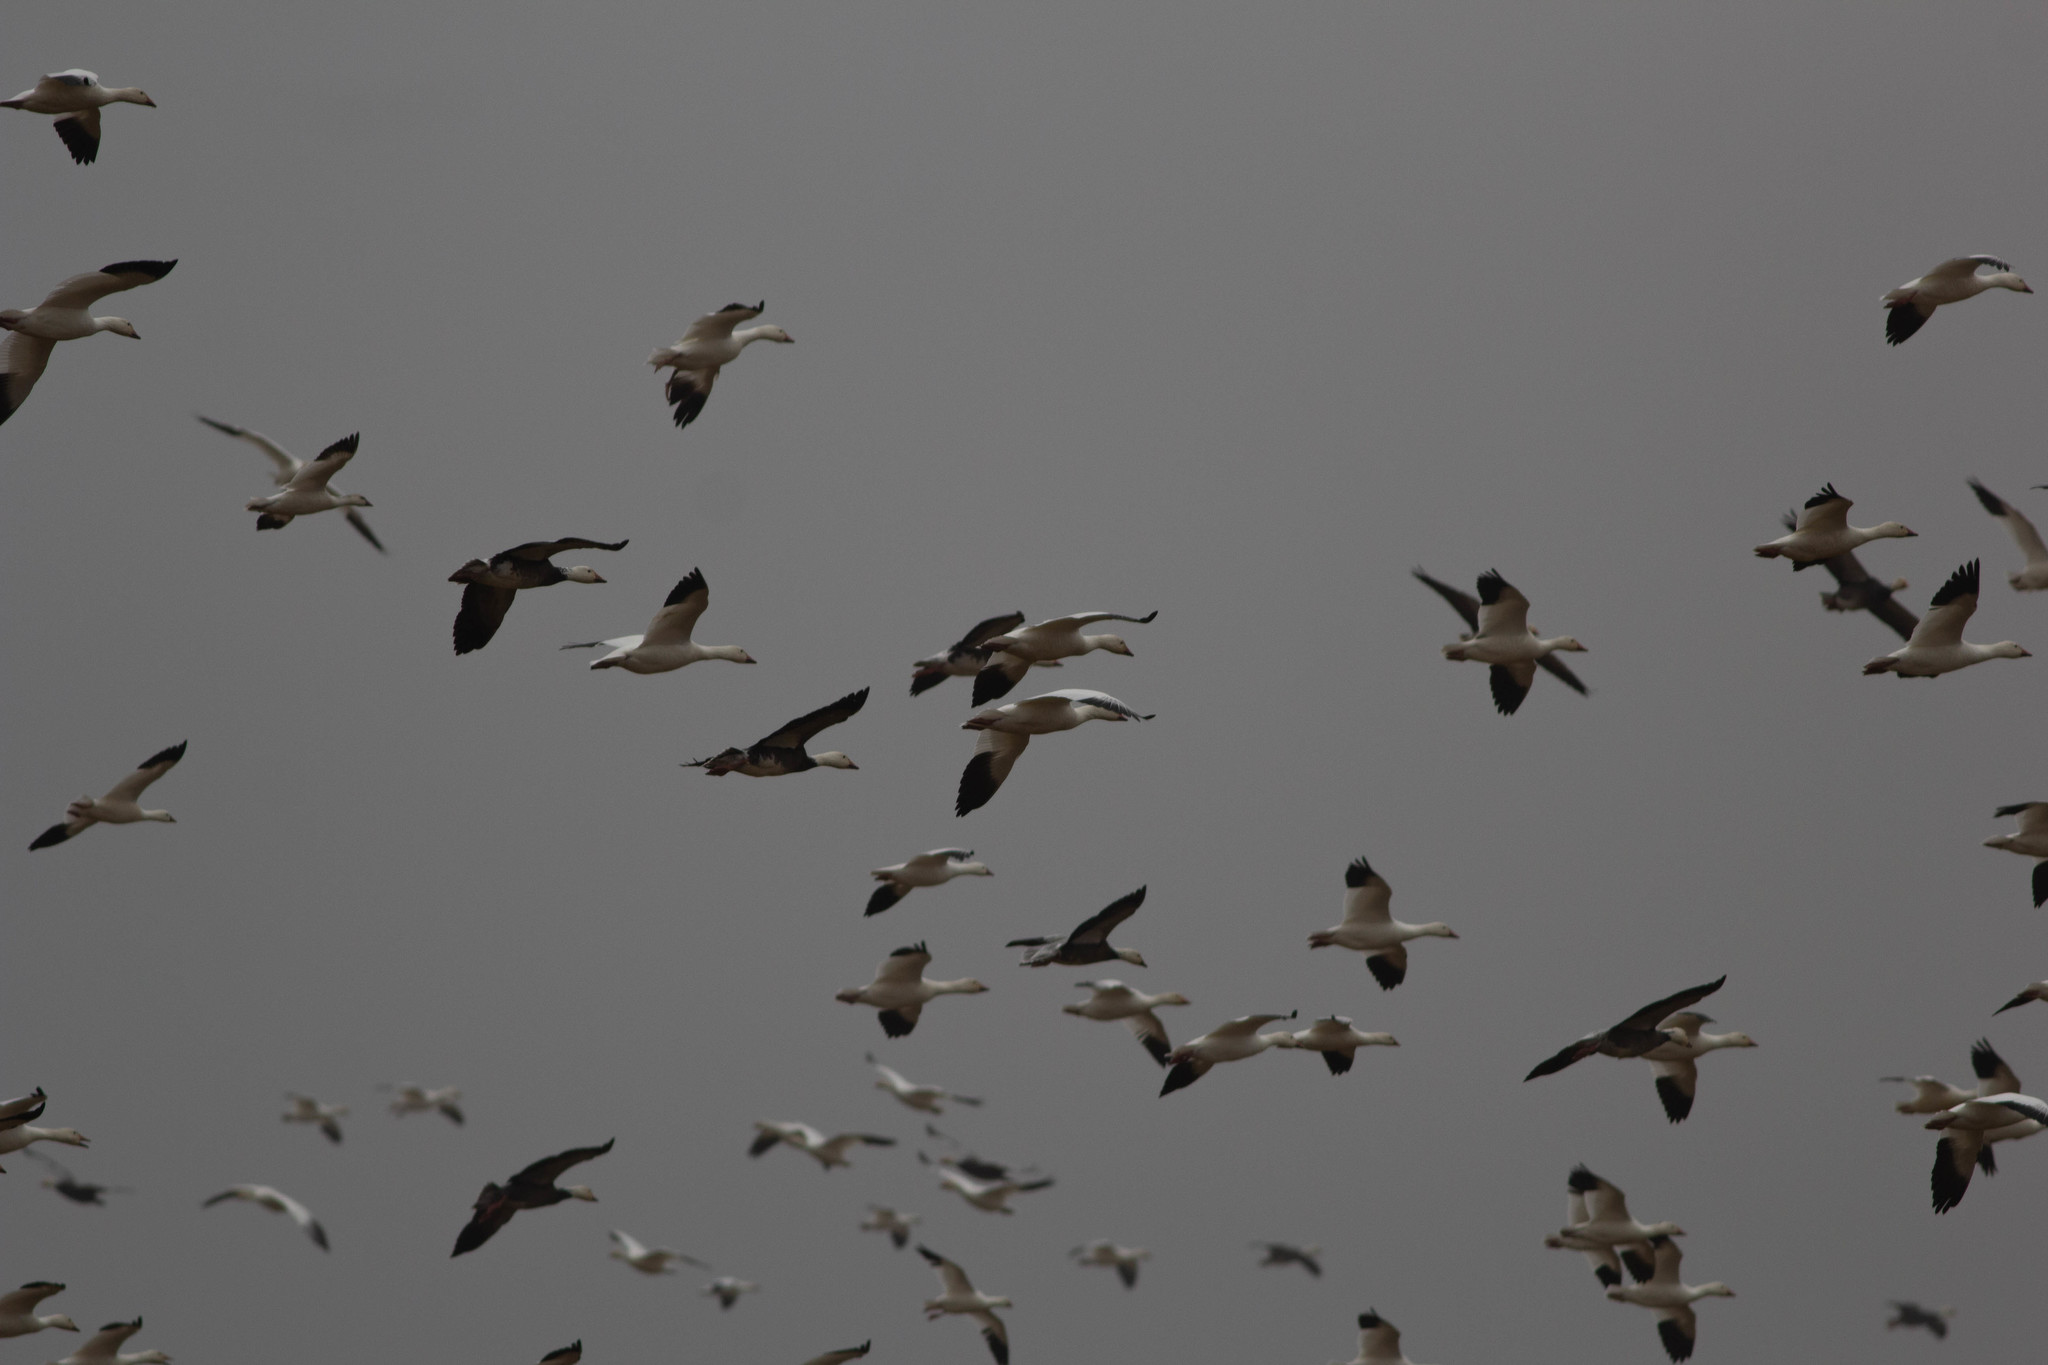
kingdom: Animalia
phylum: Chordata
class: Aves
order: Anseriformes
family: Anatidae
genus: Anser
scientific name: Anser caerulescens
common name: Snow goose
